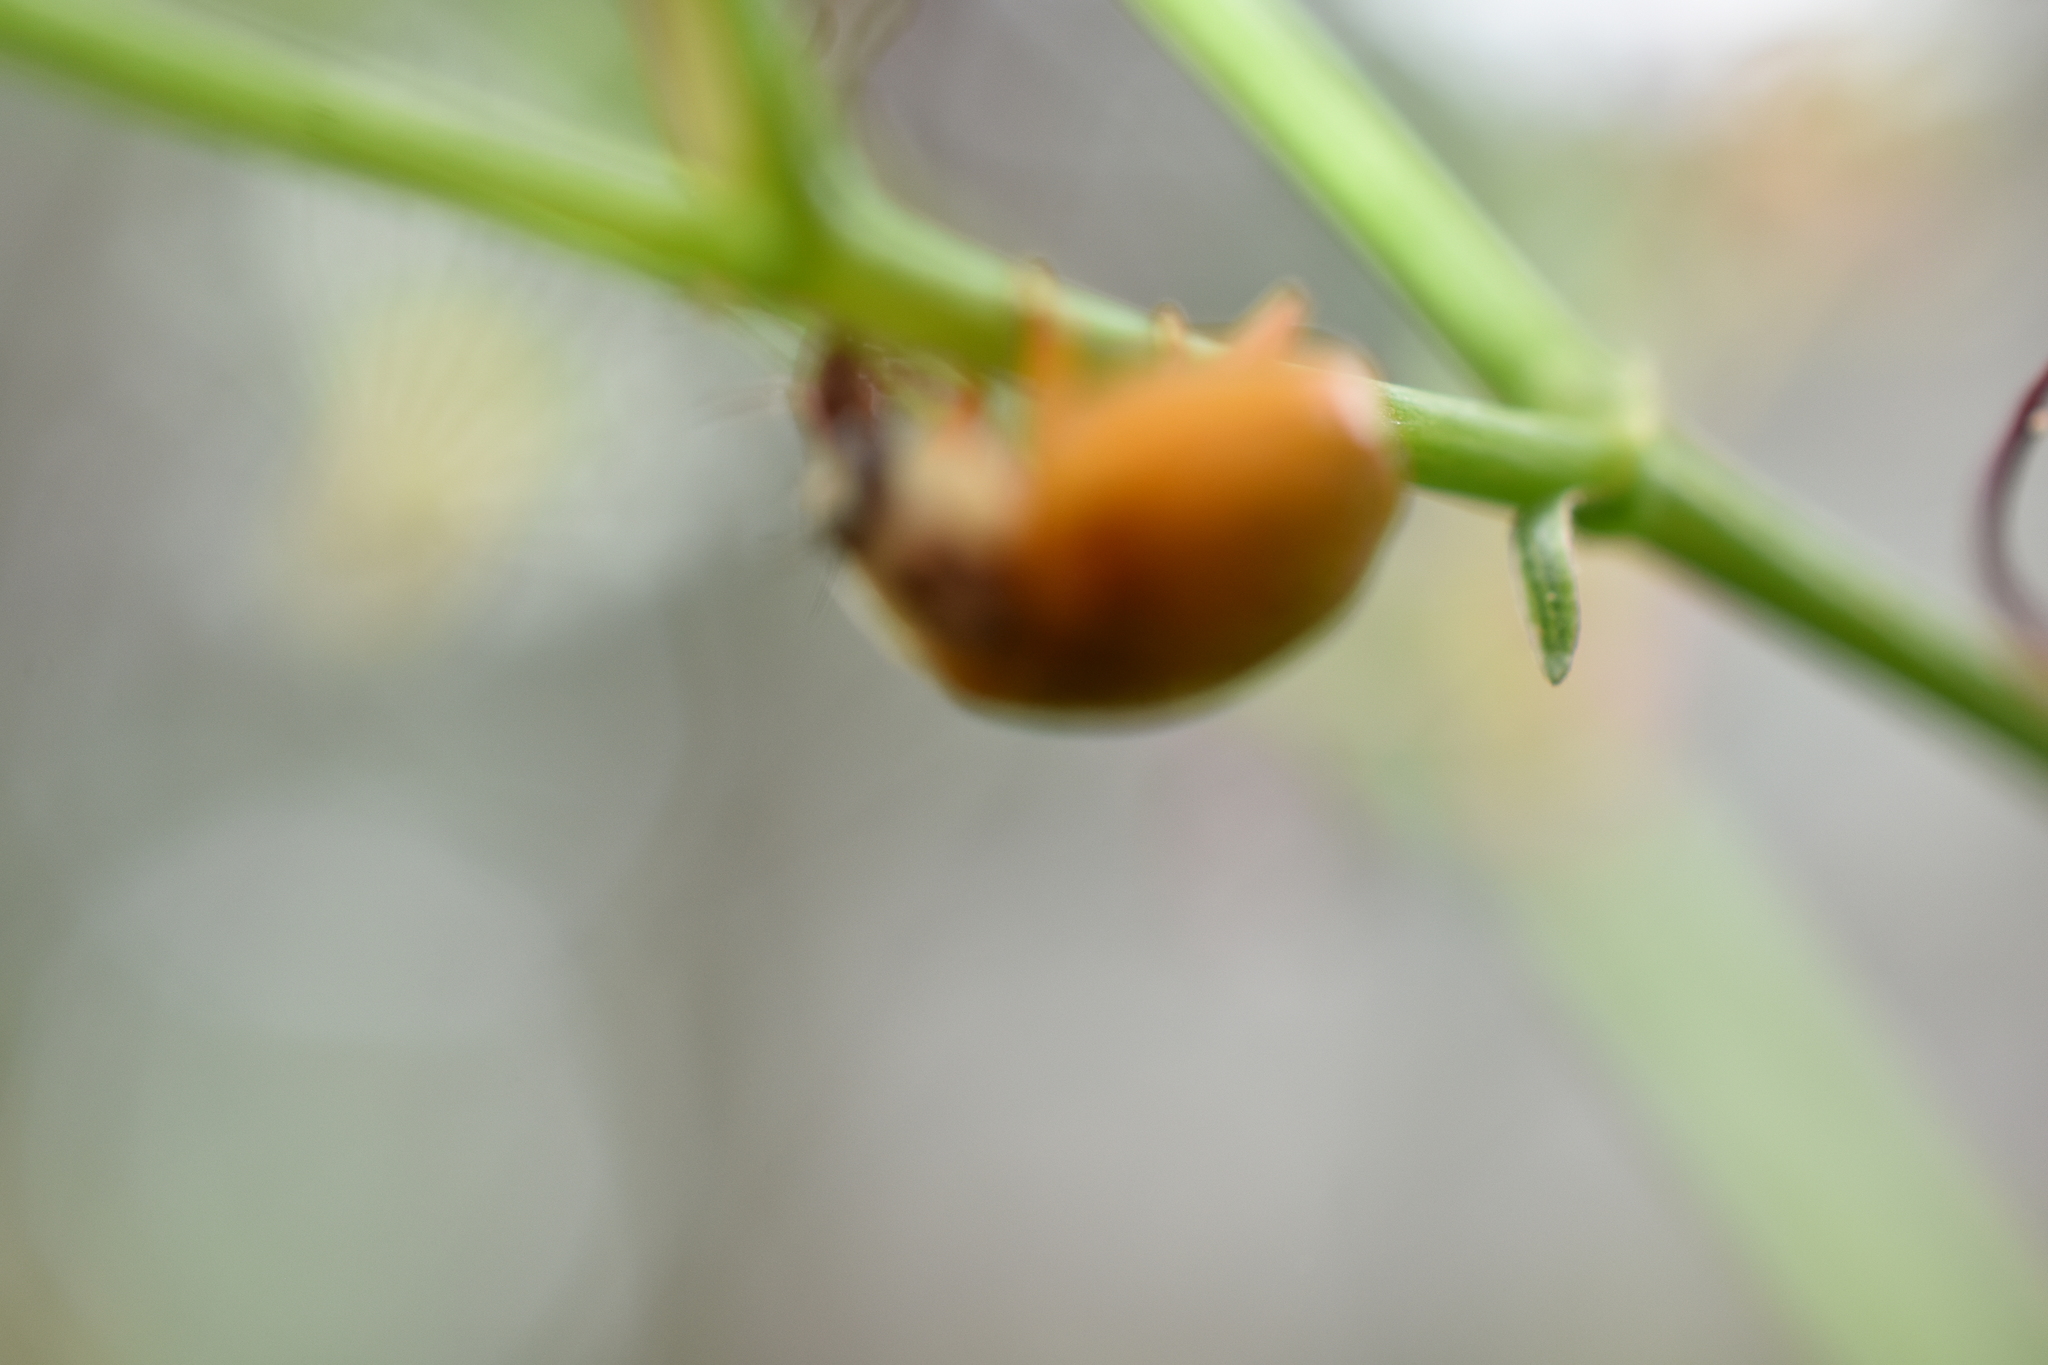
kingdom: Animalia
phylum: Arthropoda
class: Insecta
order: Coleoptera
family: Coccinellidae
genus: Harmonia
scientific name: Harmonia axyridis
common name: Harlequin ladybird
